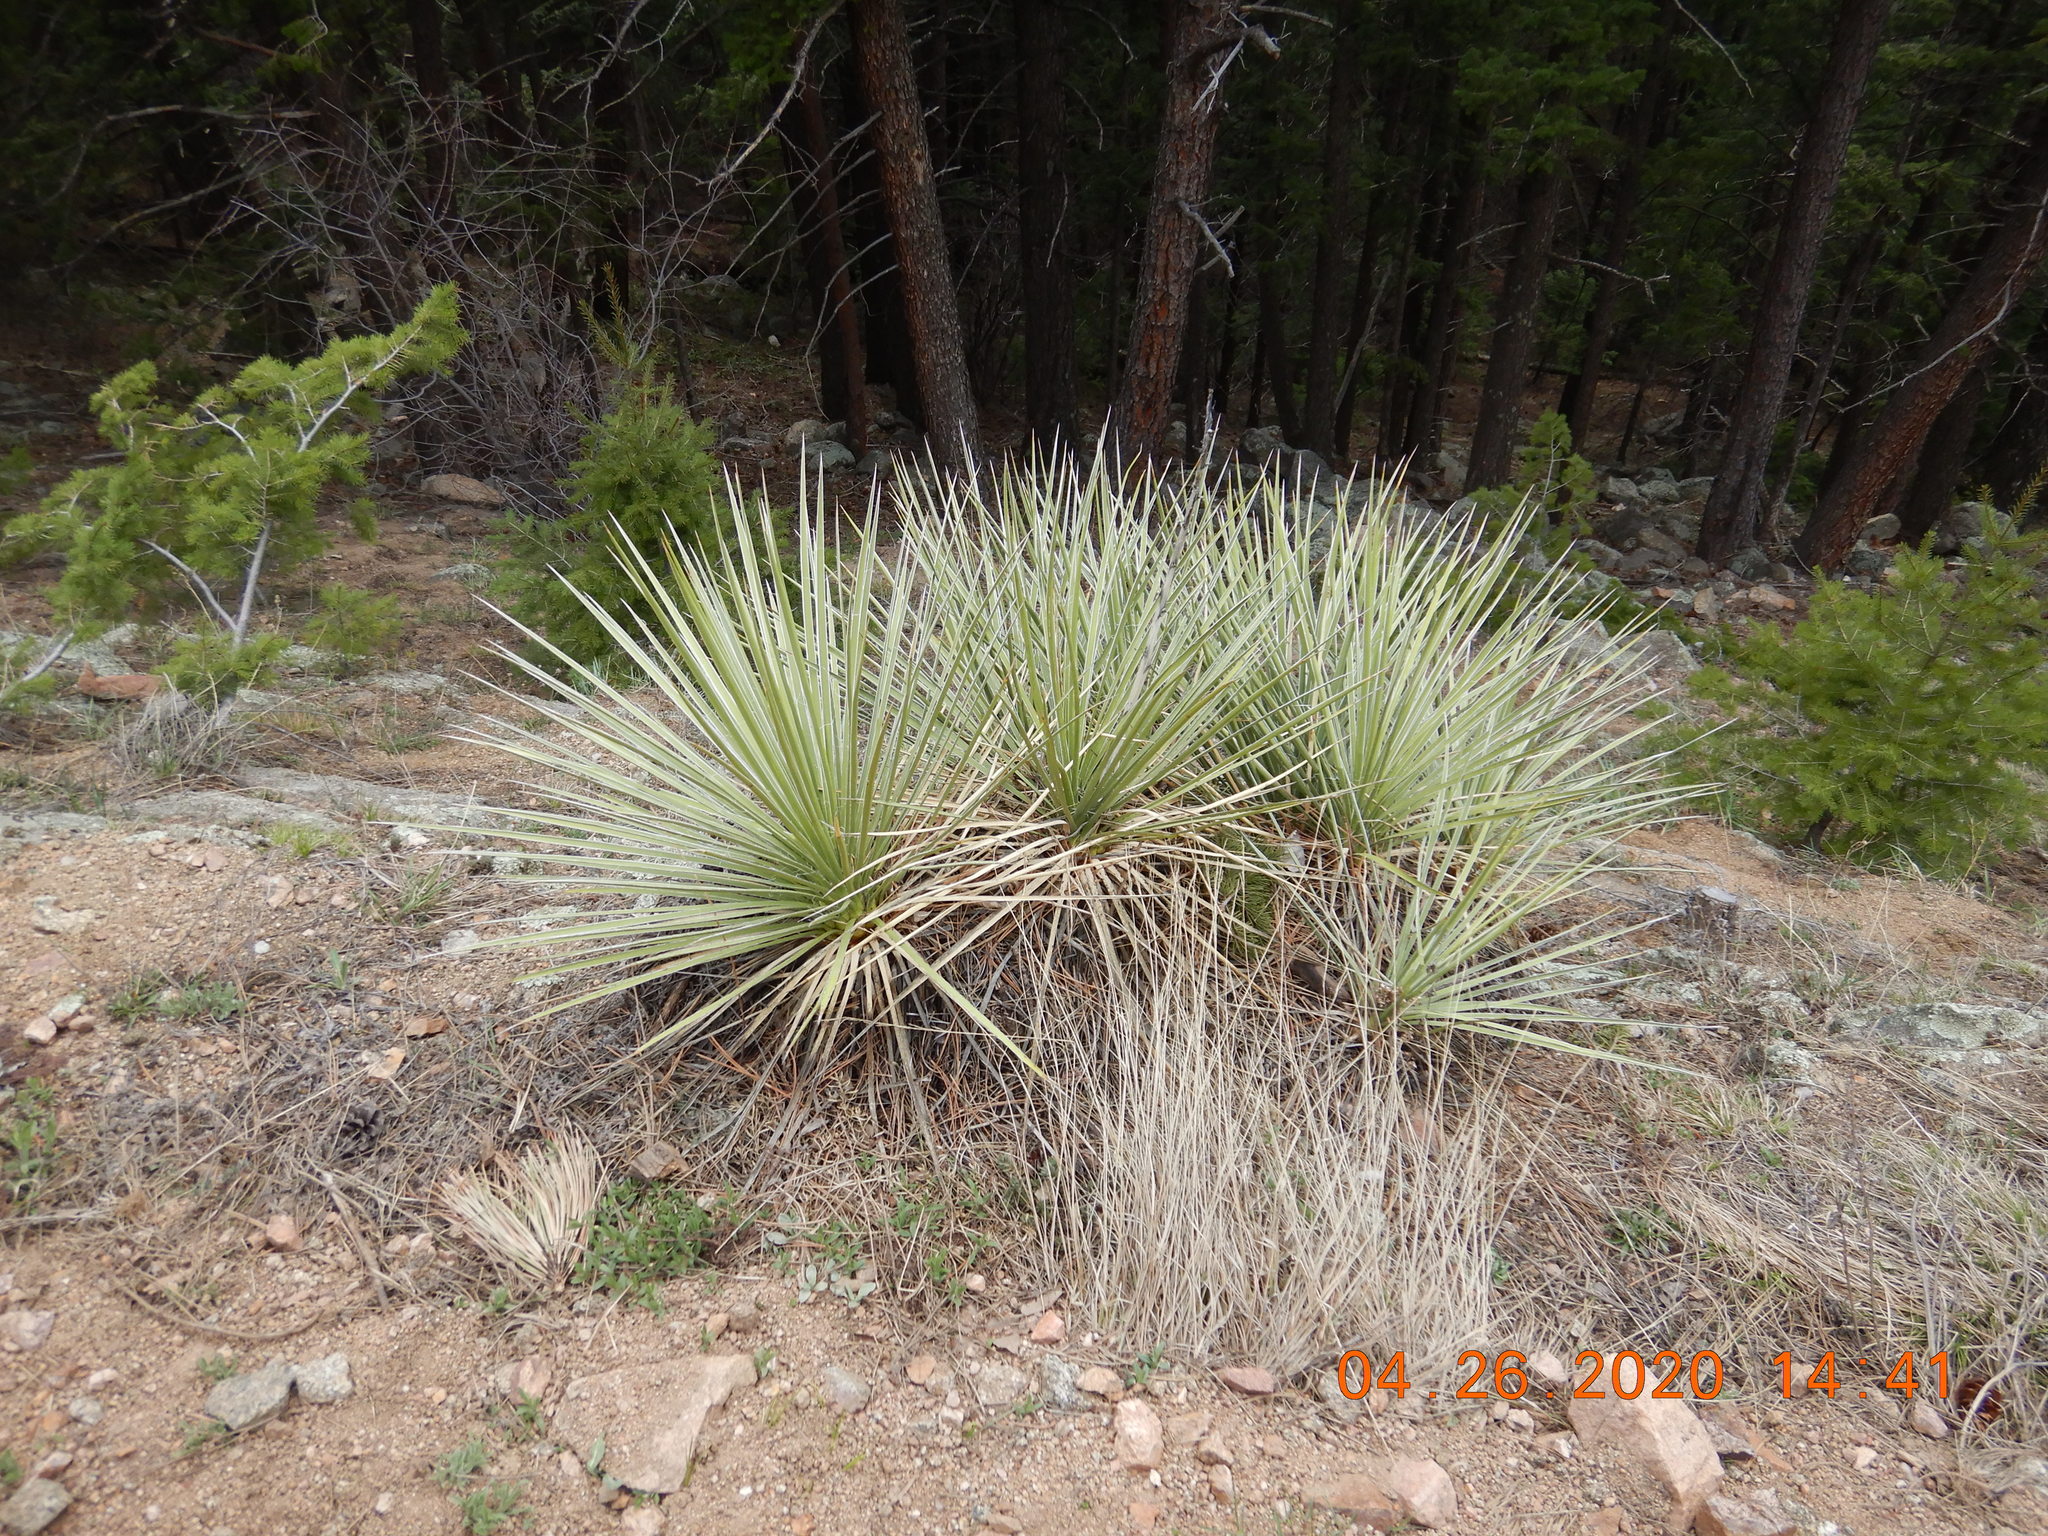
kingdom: Plantae
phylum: Tracheophyta
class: Liliopsida
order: Asparagales
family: Asparagaceae
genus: Yucca
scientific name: Yucca glauca
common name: Great plains yucca
